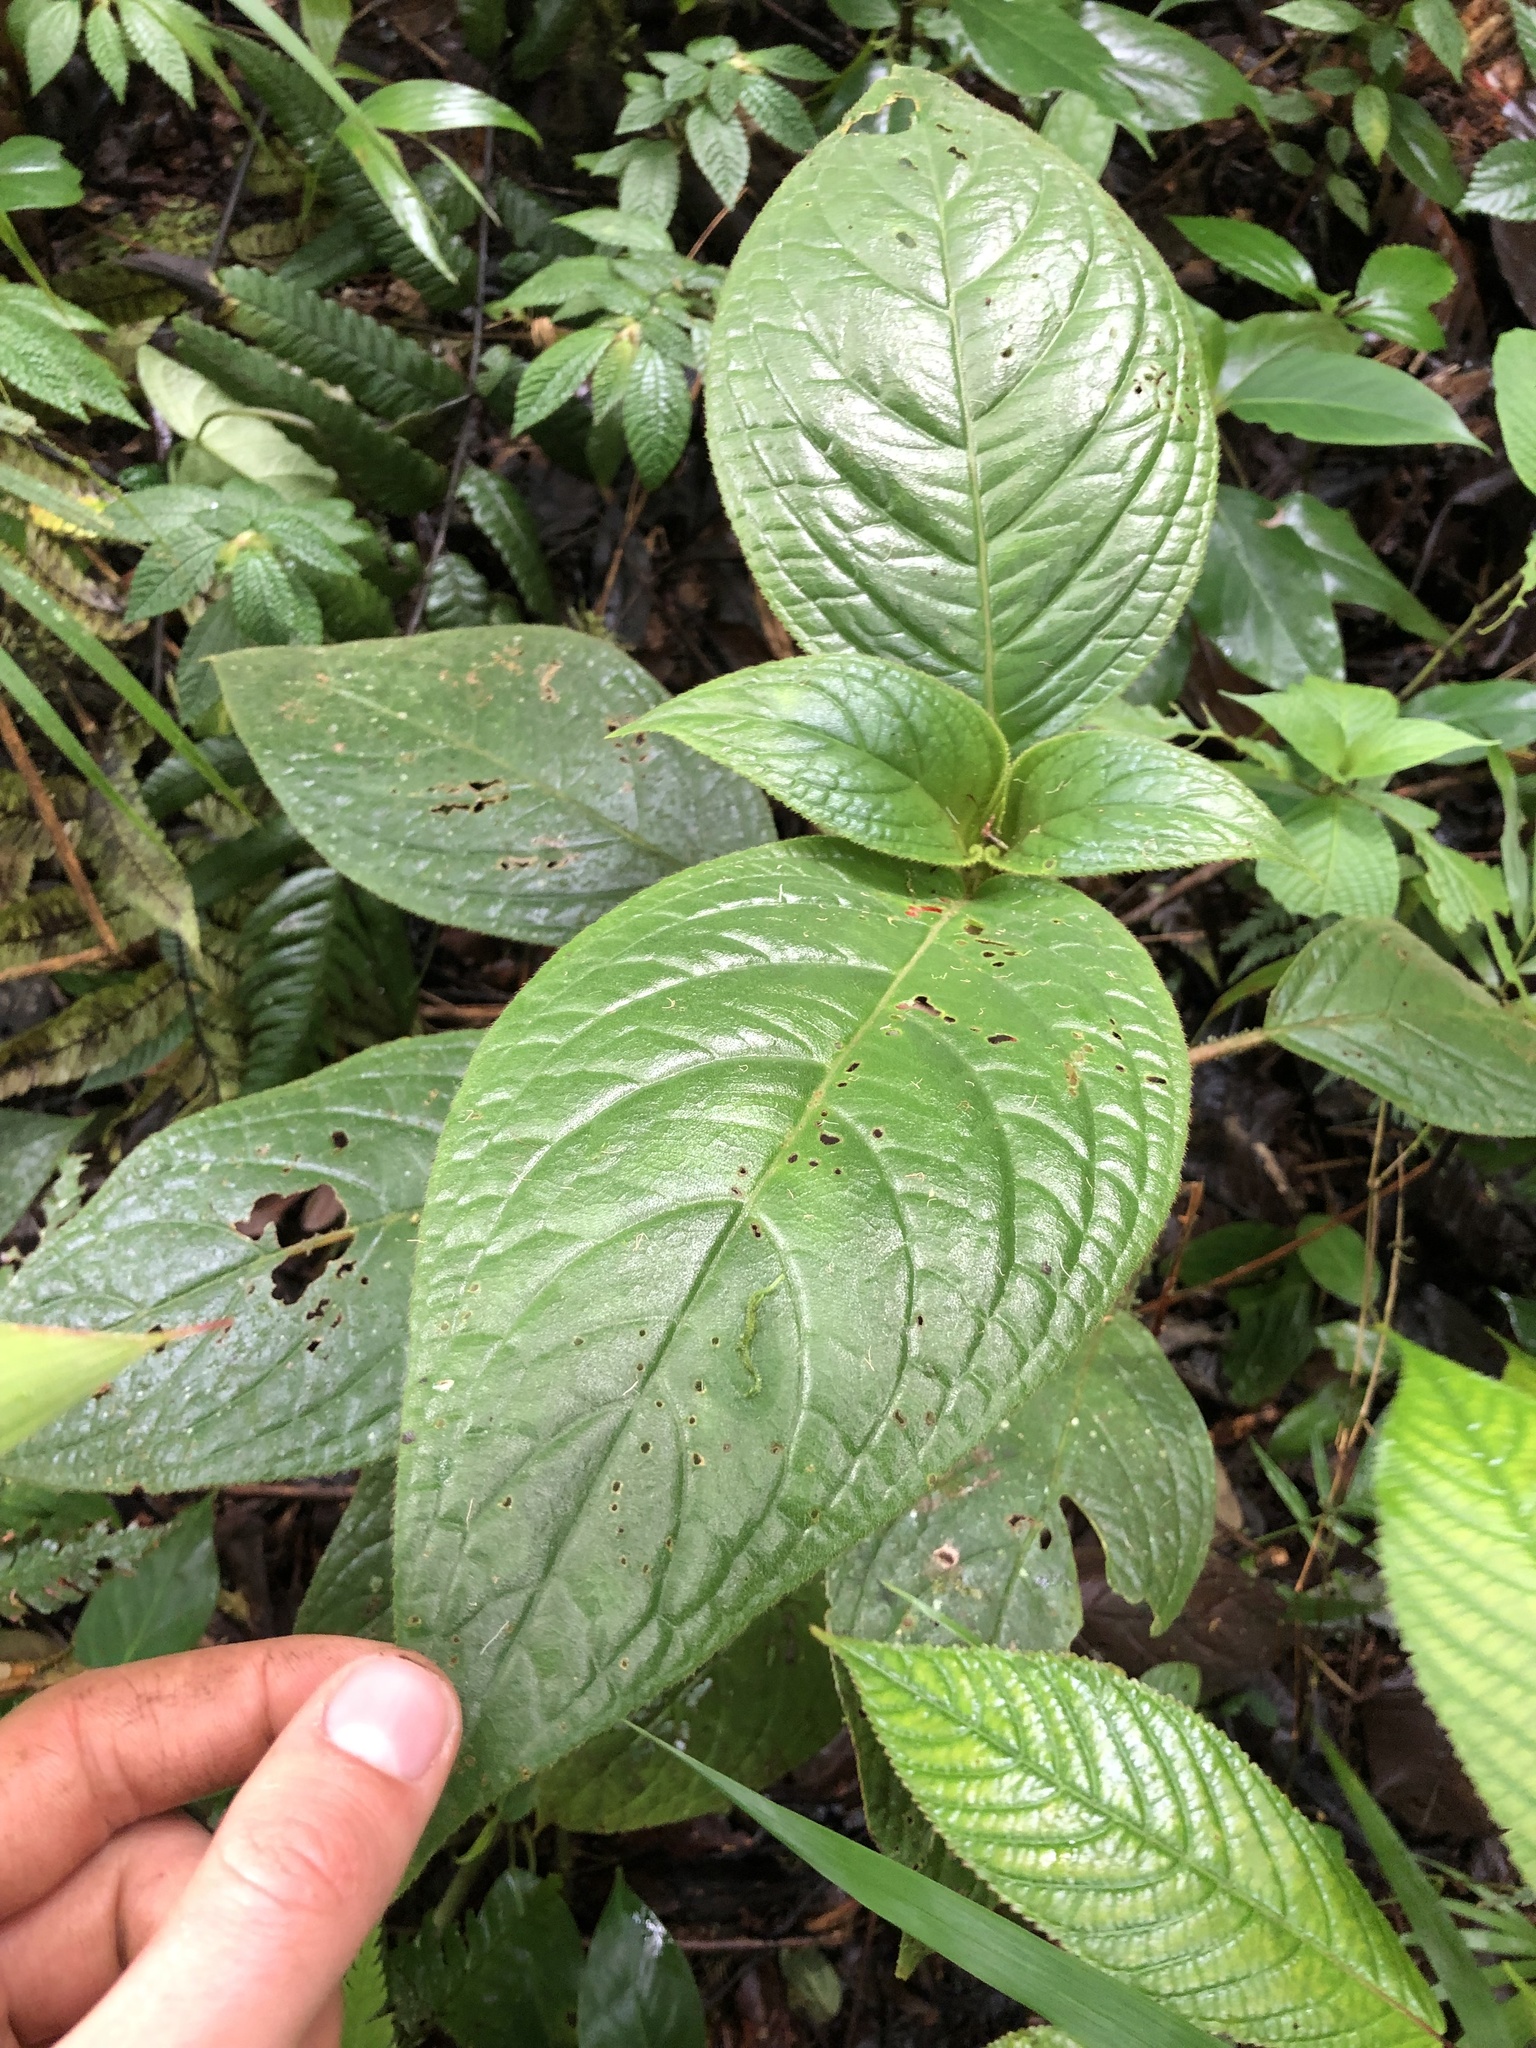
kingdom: Plantae
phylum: Tracheophyta
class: Magnoliopsida
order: Lamiales
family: Gesneriaceae
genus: Glossoloma
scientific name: Glossoloma schultzei
